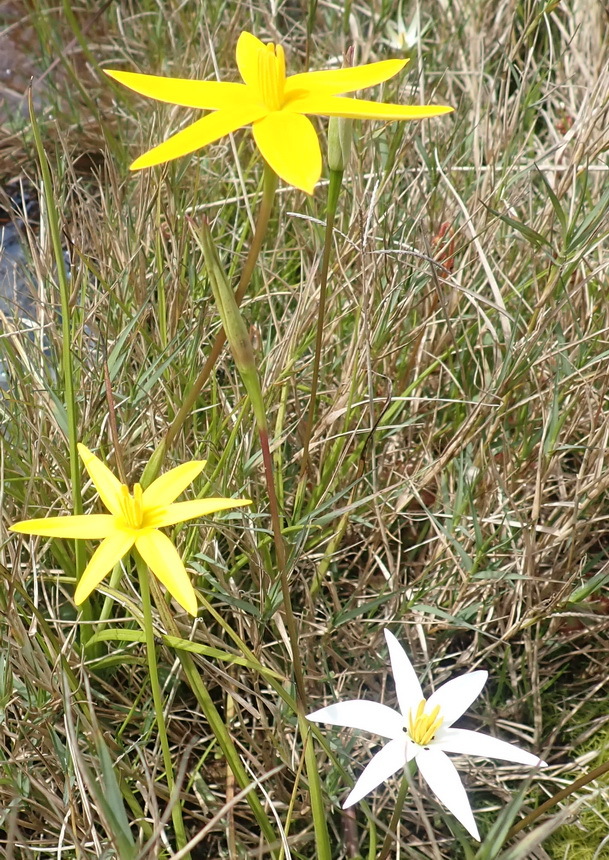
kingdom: Plantae
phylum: Tracheophyta
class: Liliopsida
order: Asparagales
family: Hypoxidaceae
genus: Pauridia
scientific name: Pauridia capensis
